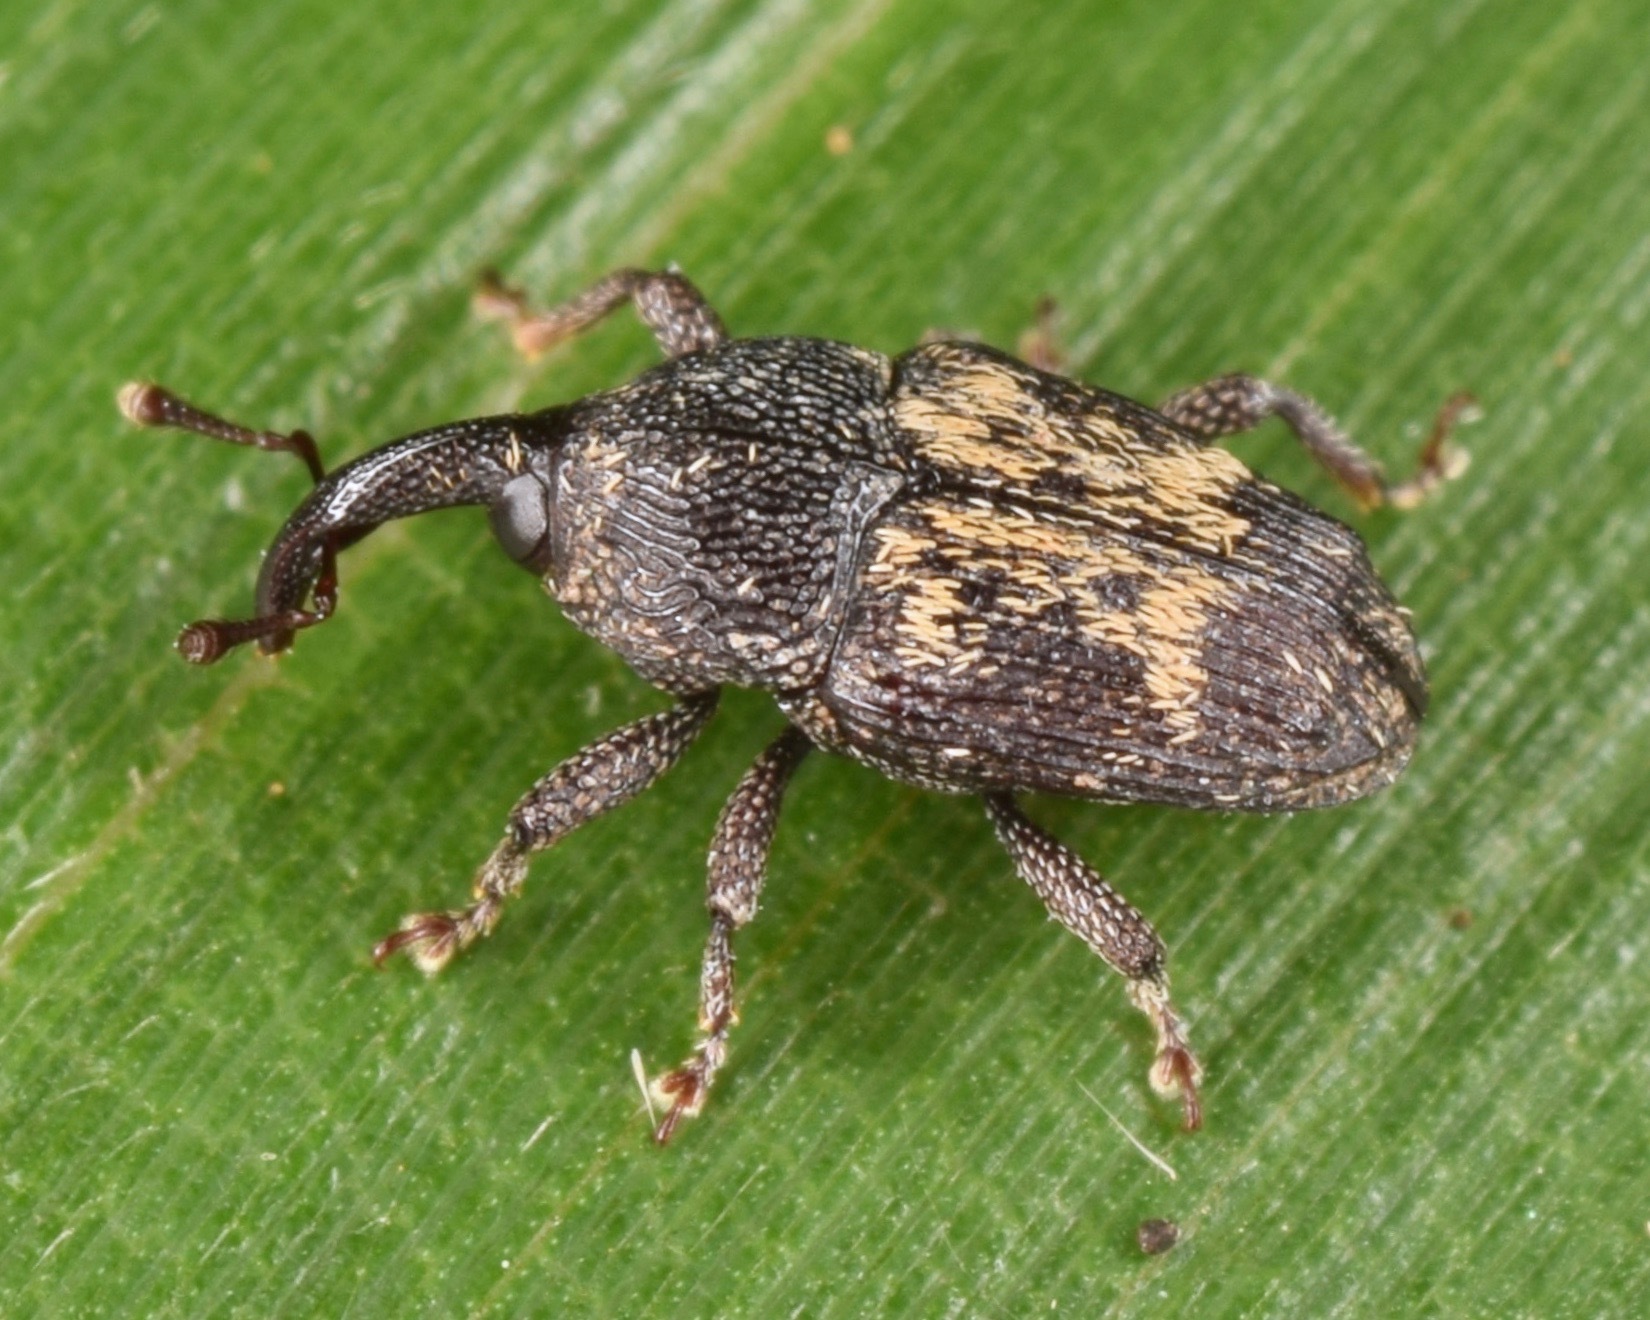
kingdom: Animalia
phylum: Arthropoda
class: Insecta
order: Coleoptera
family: Curculionidae
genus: Glyptobaris
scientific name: Glyptobaris lecontei
